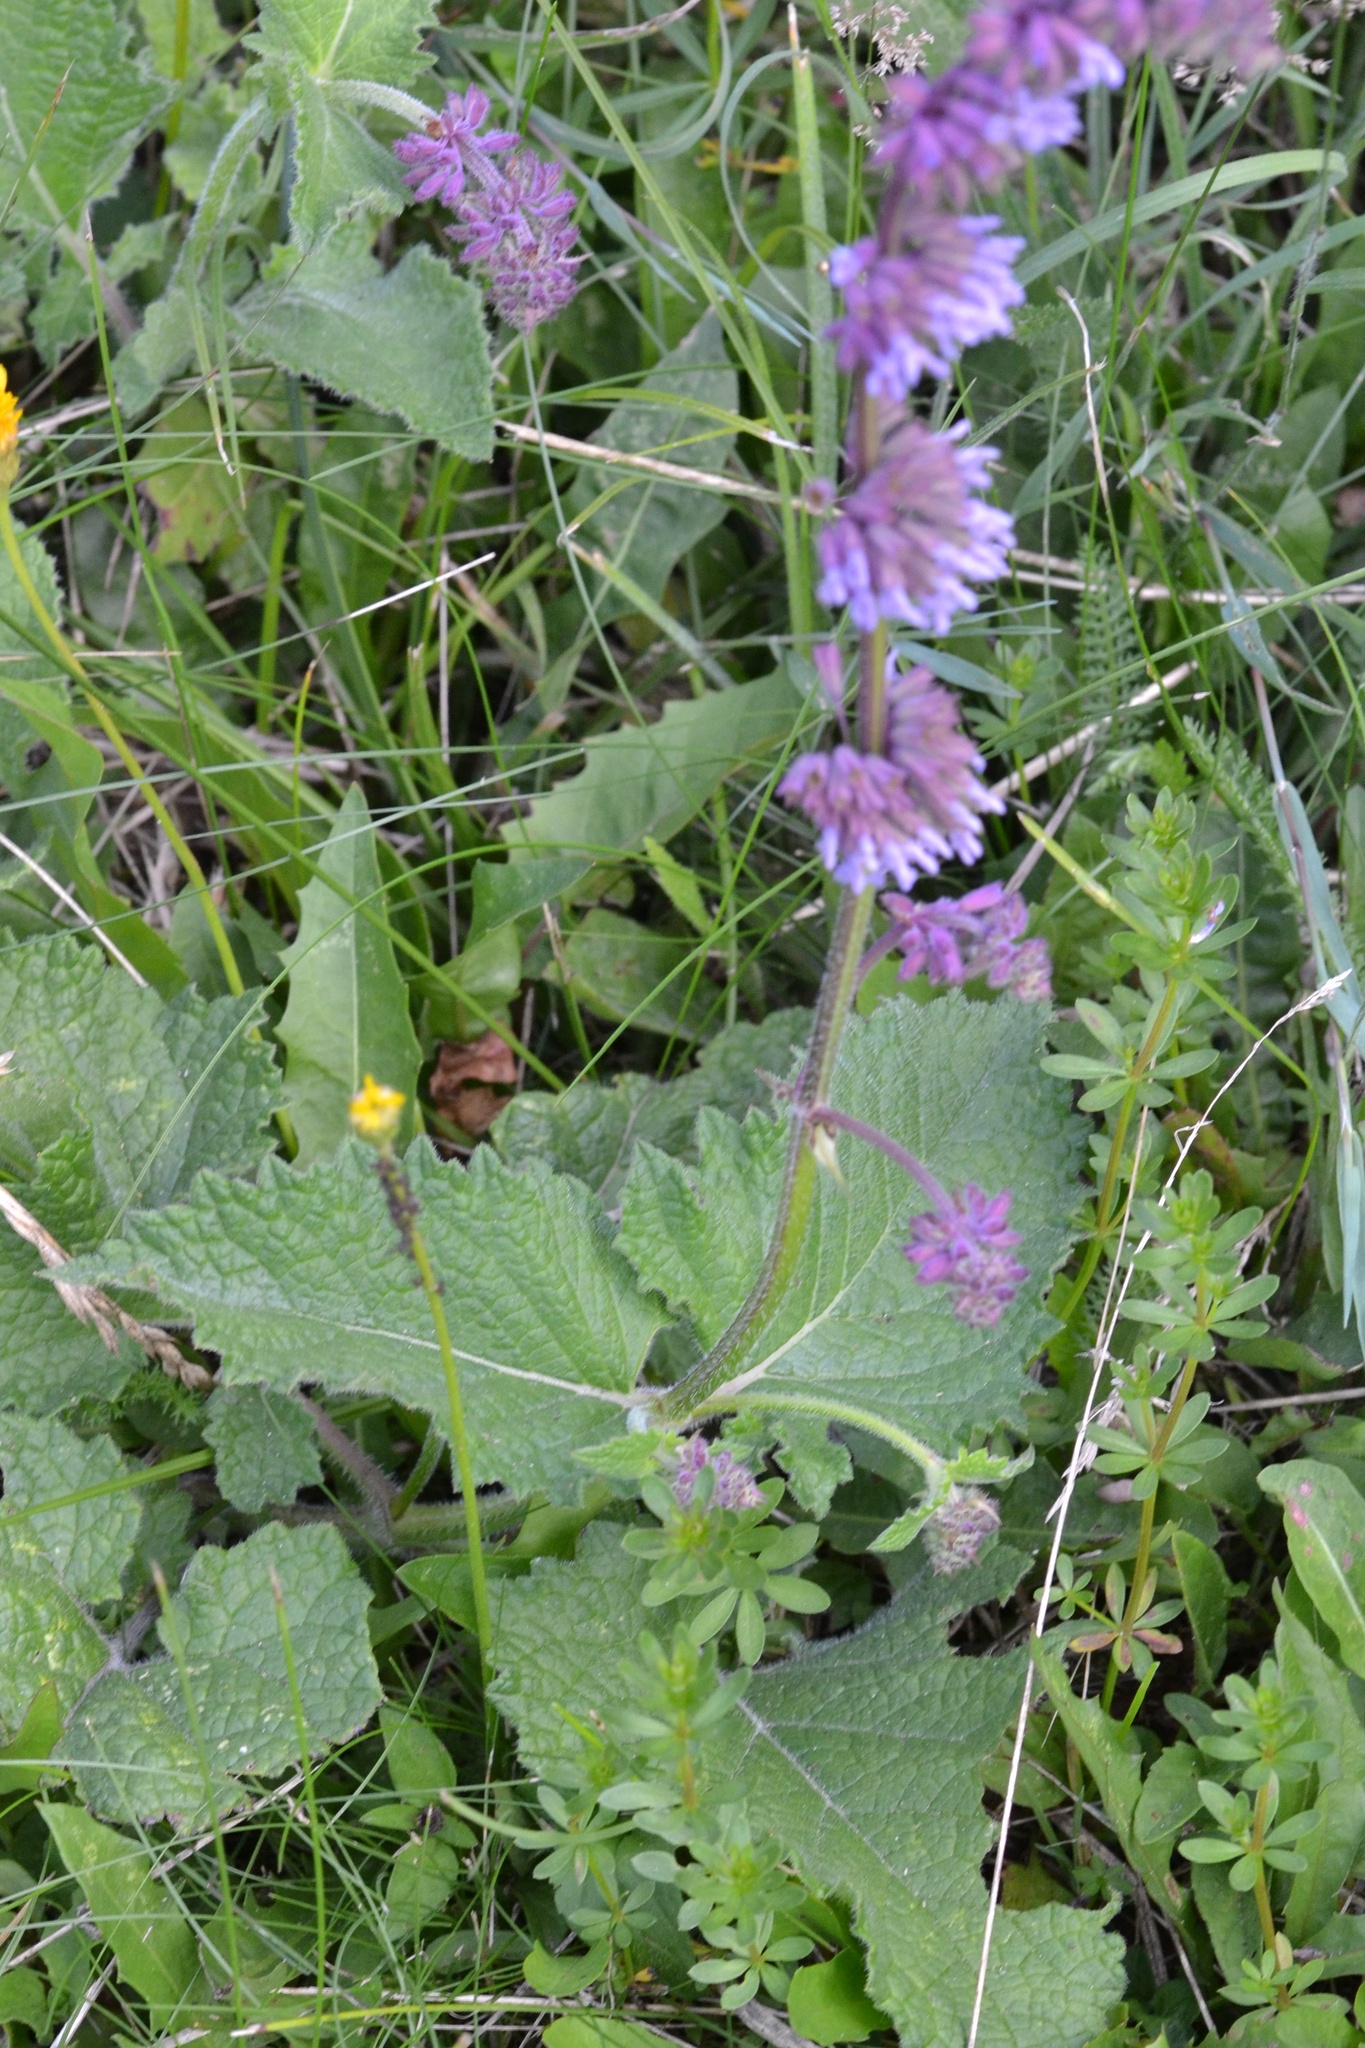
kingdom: Plantae
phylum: Tracheophyta
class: Magnoliopsida
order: Lamiales
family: Lamiaceae
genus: Salvia
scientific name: Salvia verticillata
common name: Whorled clary
